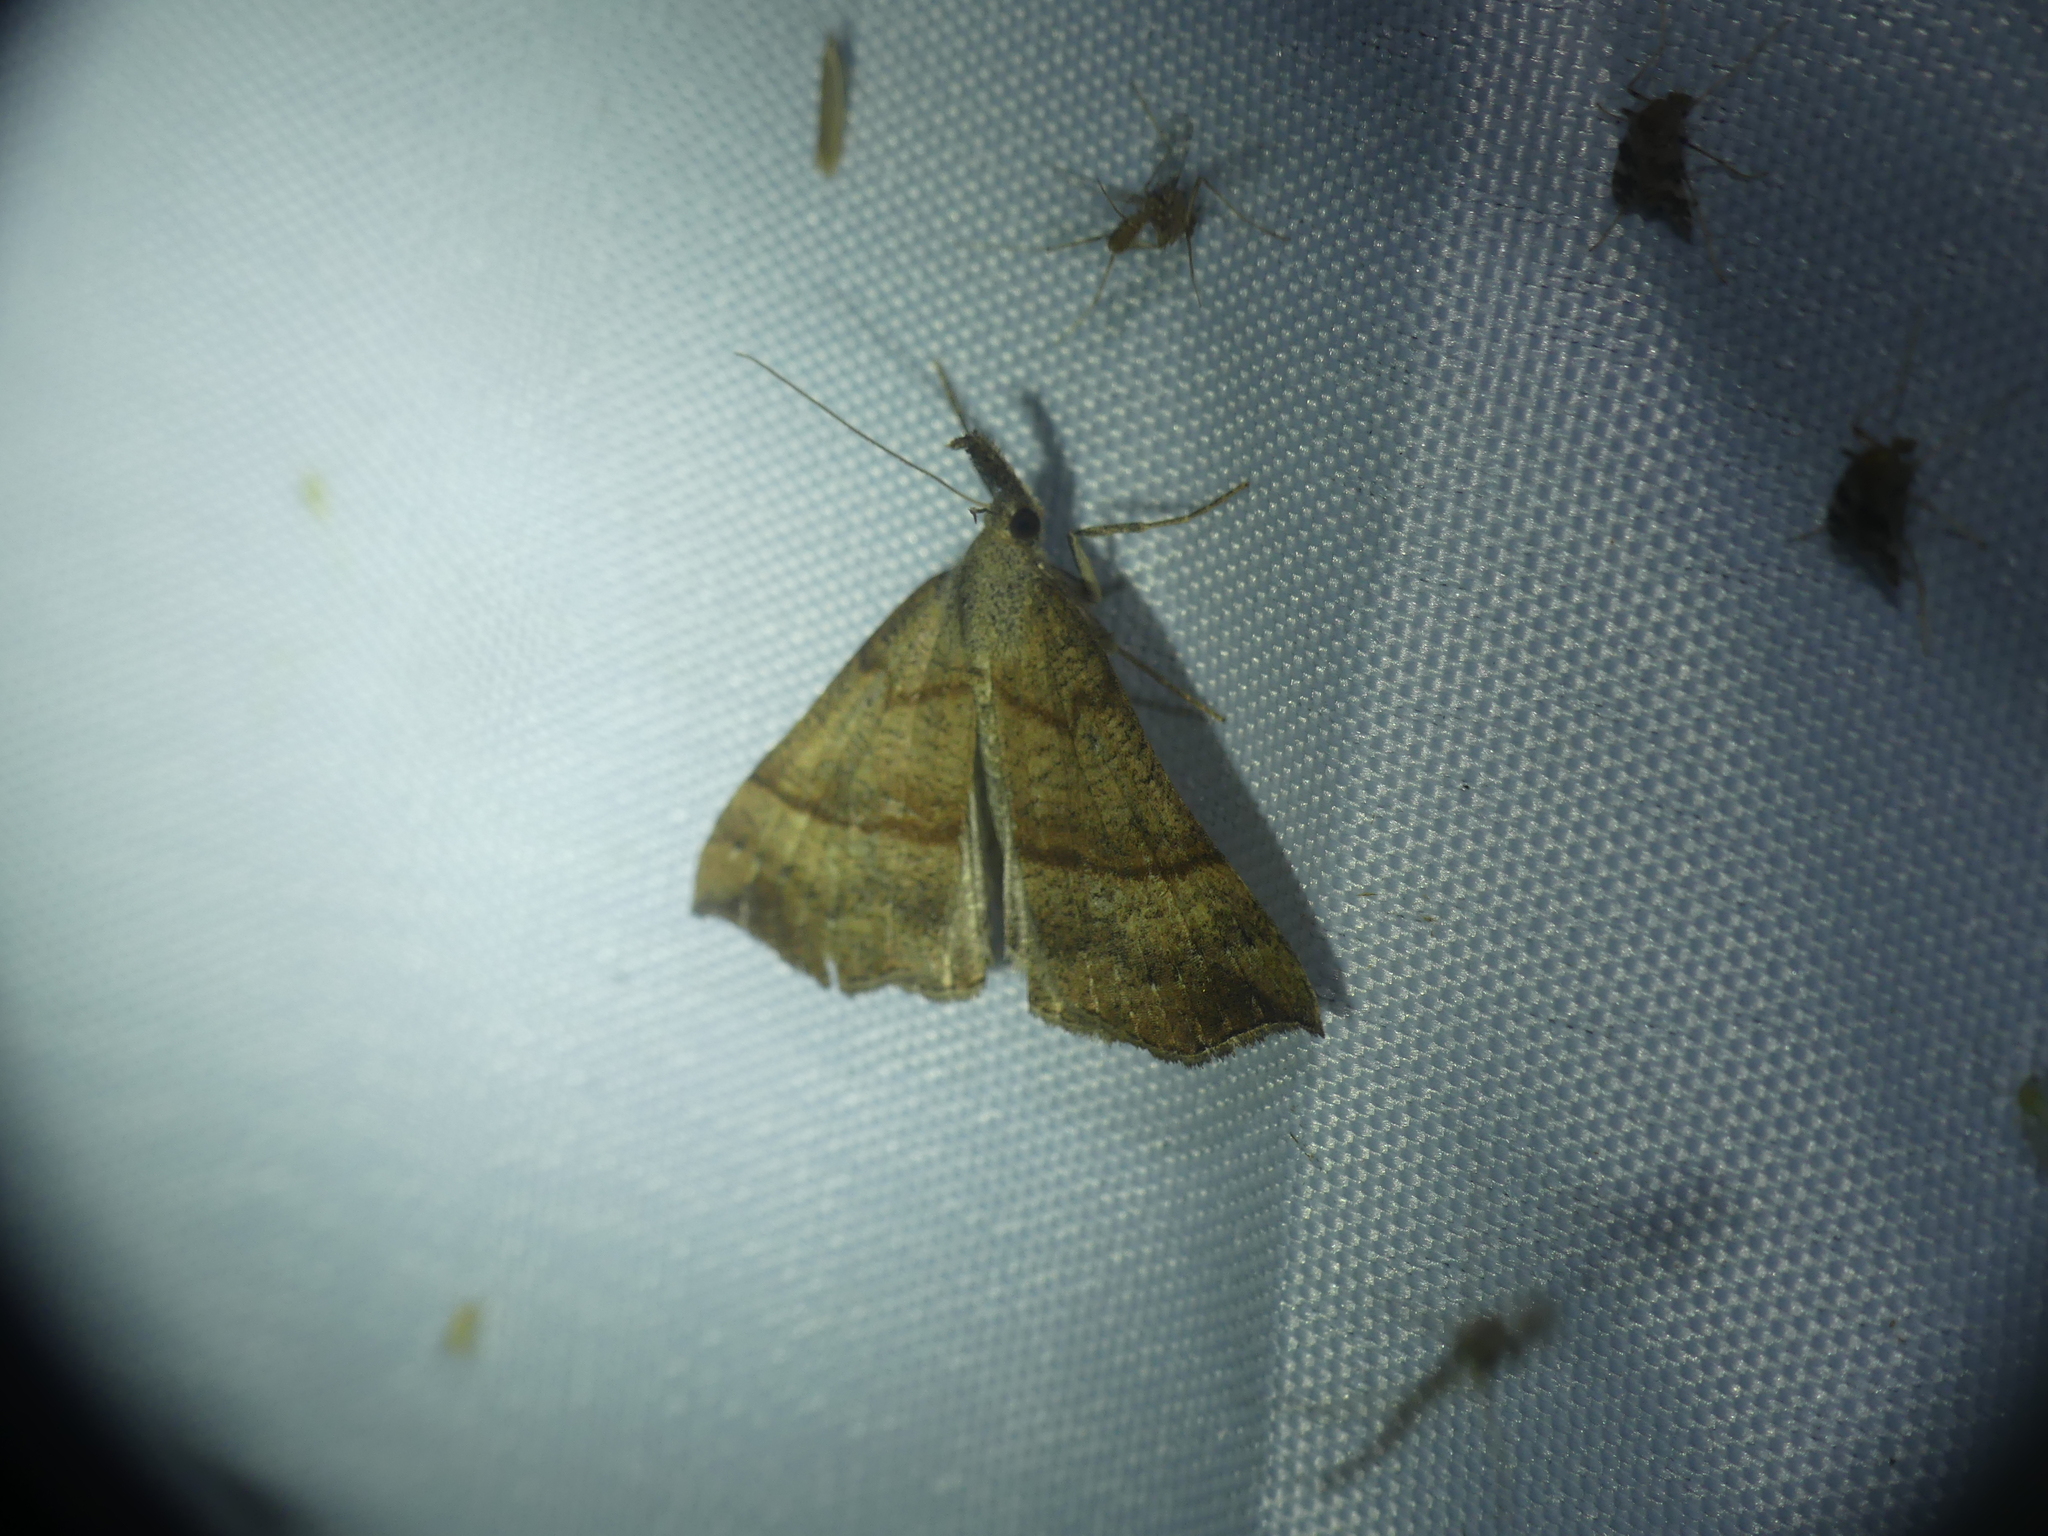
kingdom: Animalia
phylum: Arthropoda
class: Insecta
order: Lepidoptera
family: Erebidae
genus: Hypena
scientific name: Hypena proboscidalis
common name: Snout
